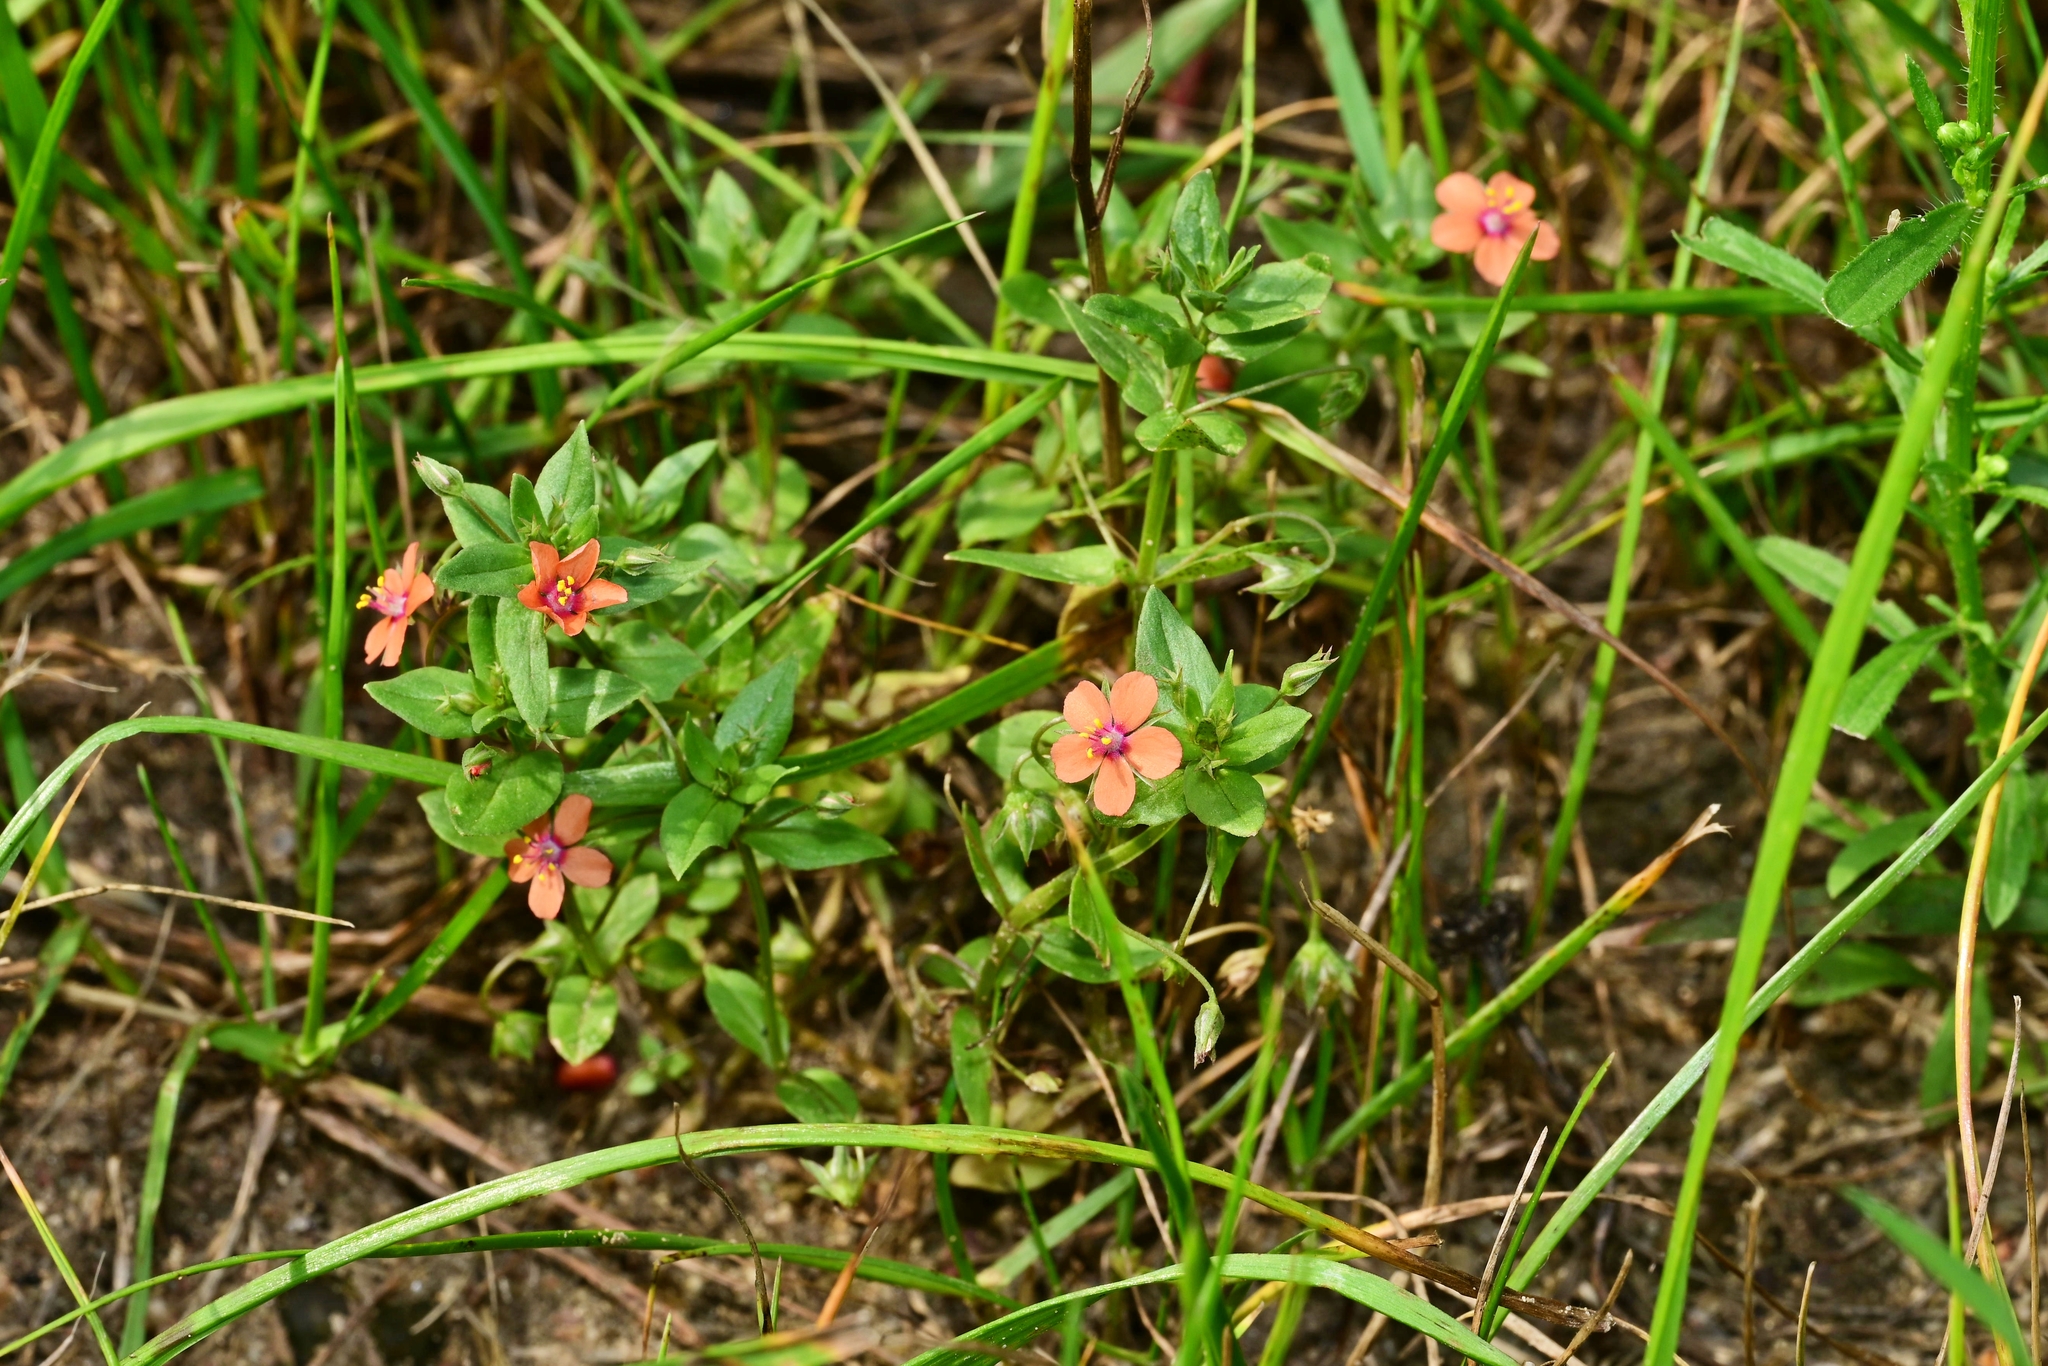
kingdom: Plantae
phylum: Tracheophyta
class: Magnoliopsida
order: Ericales
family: Primulaceae
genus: Lysimachia
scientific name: Lysimachia arvensis
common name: Scarlet pimpernel
